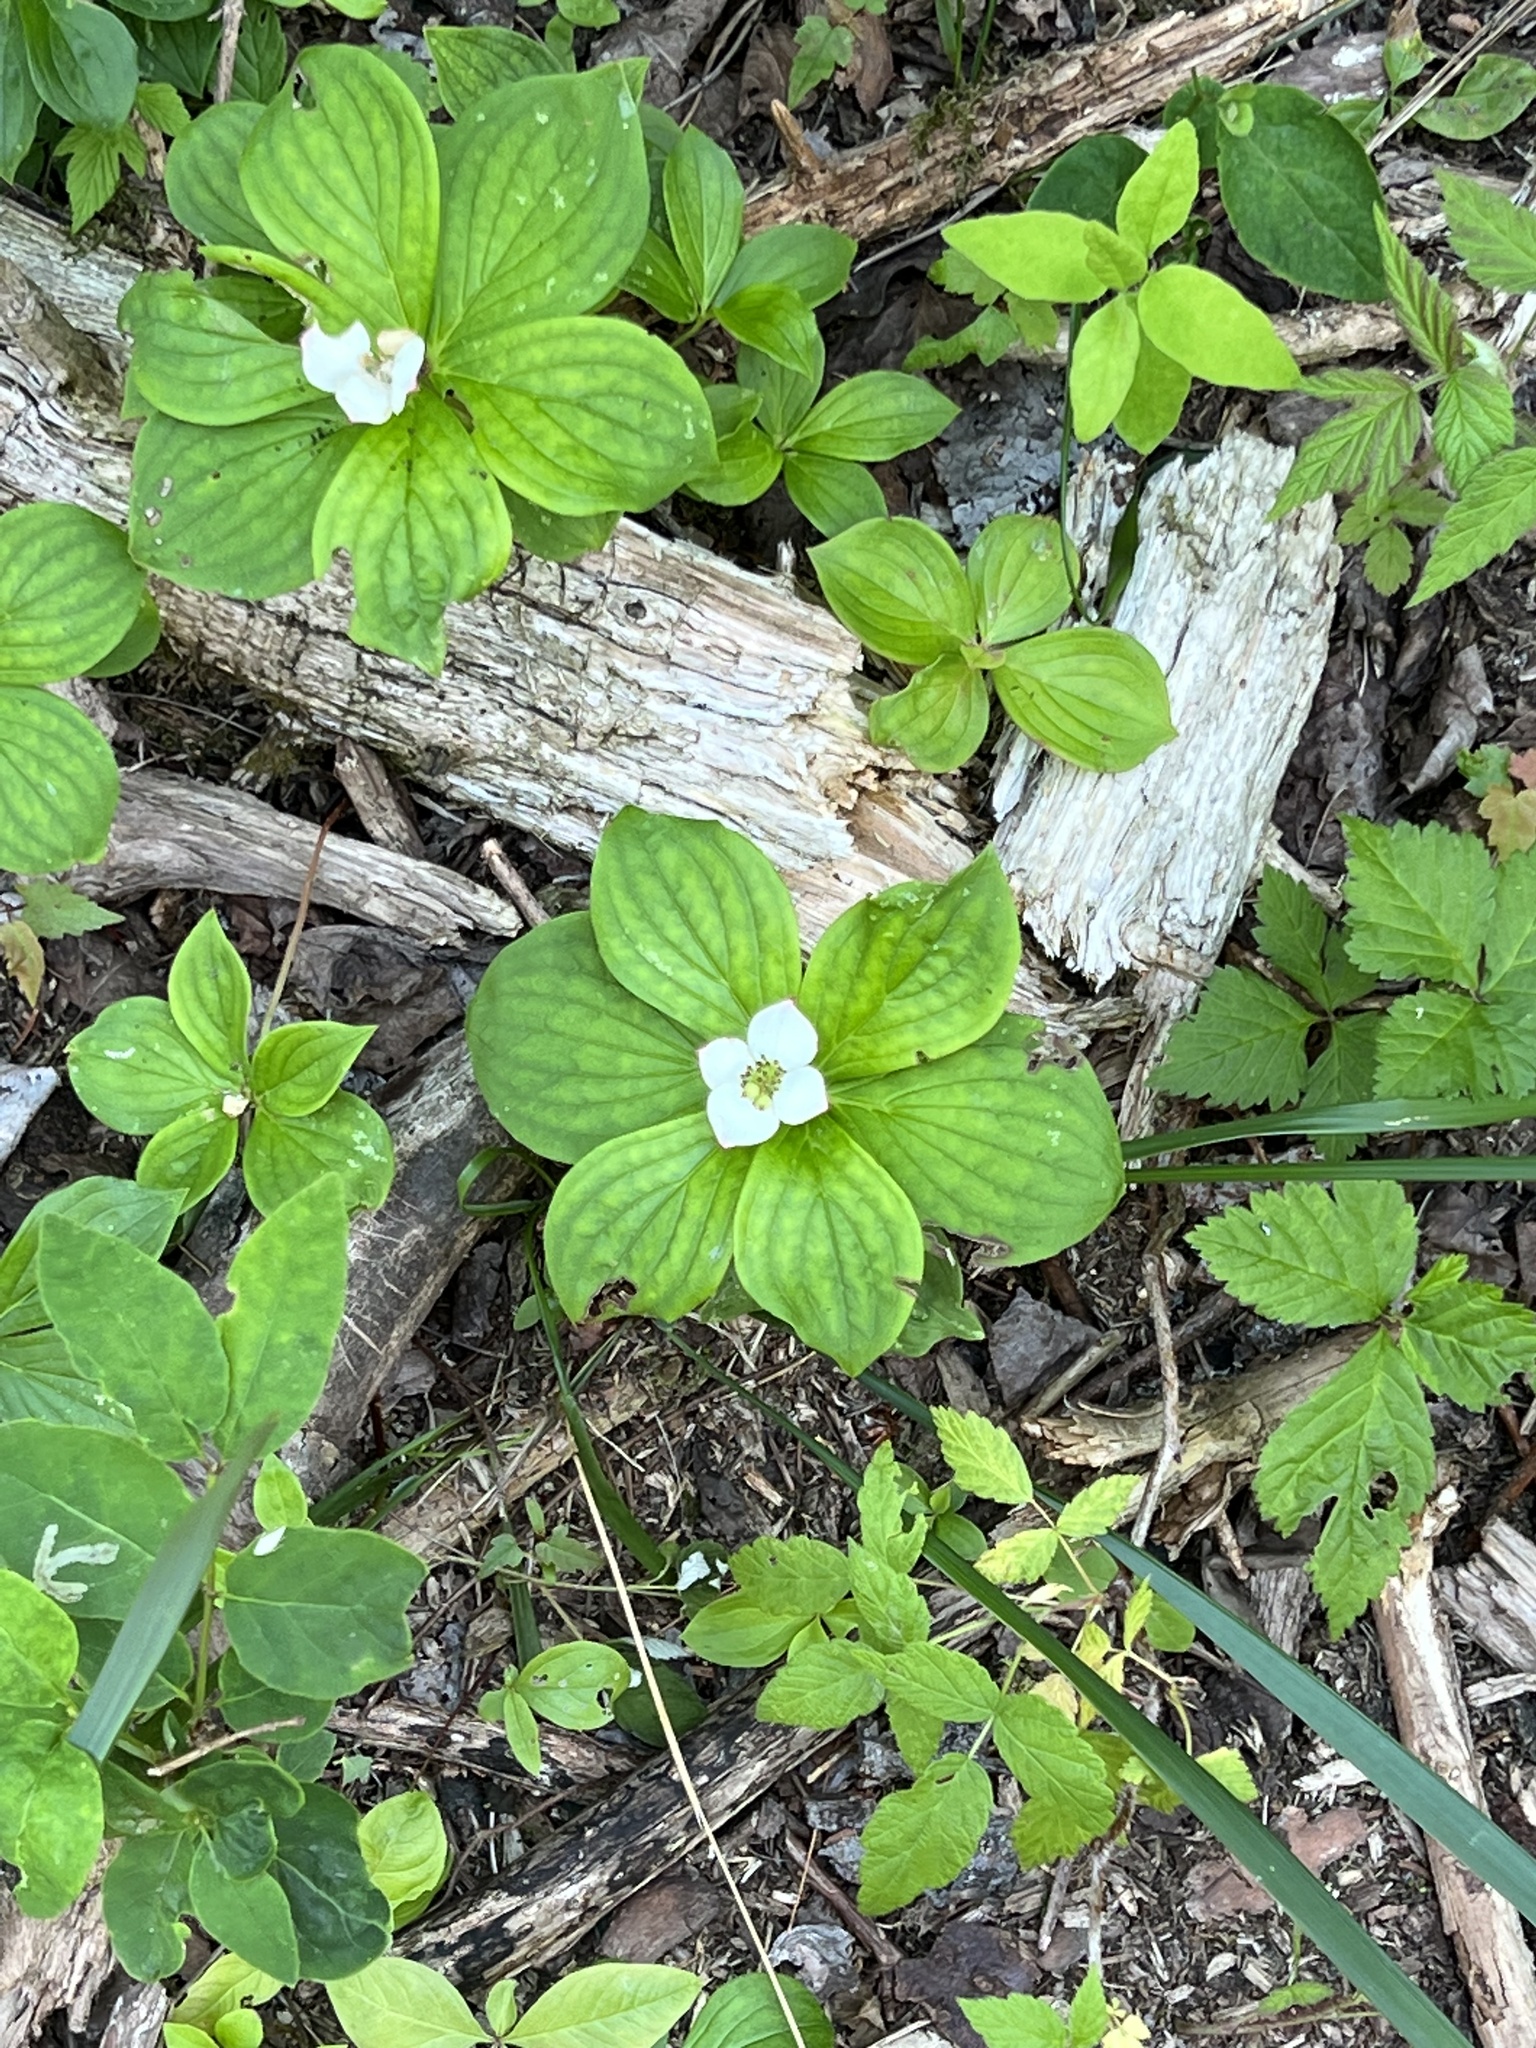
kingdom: Plantae
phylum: Tracheophyta
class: Magnoliopsida
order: Cornales
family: Cornaceae
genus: Cornus
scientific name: Cornus canadensis
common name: Creeping dogwood
